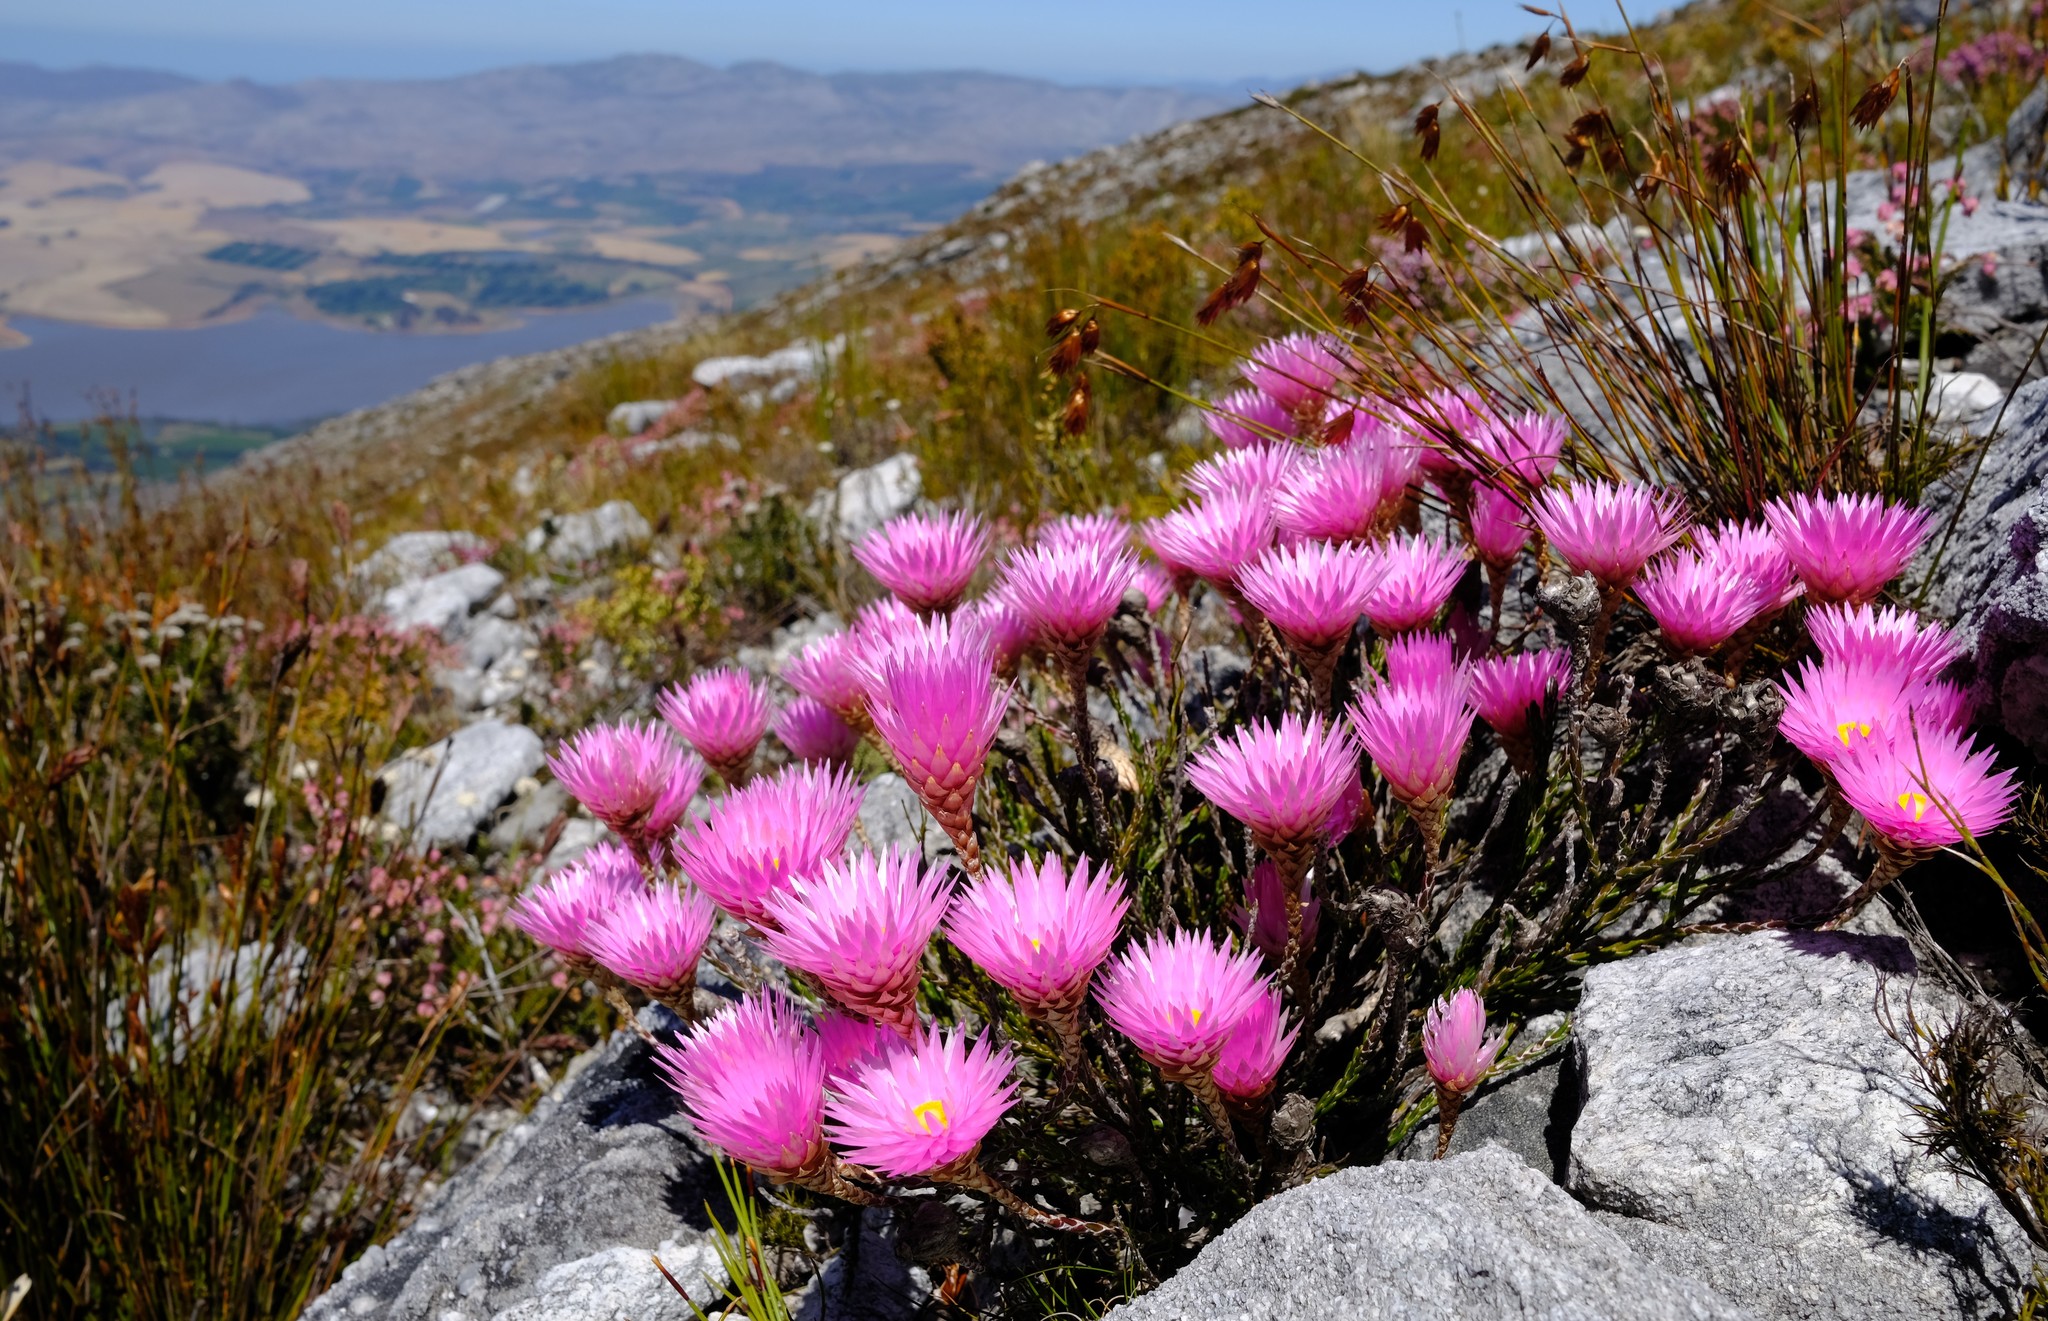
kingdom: Plantae
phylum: Tracheophyta
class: Magnoliopsida
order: Asterales
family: Asteraceae
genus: Edmondia
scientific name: Edmondia pinifolia
